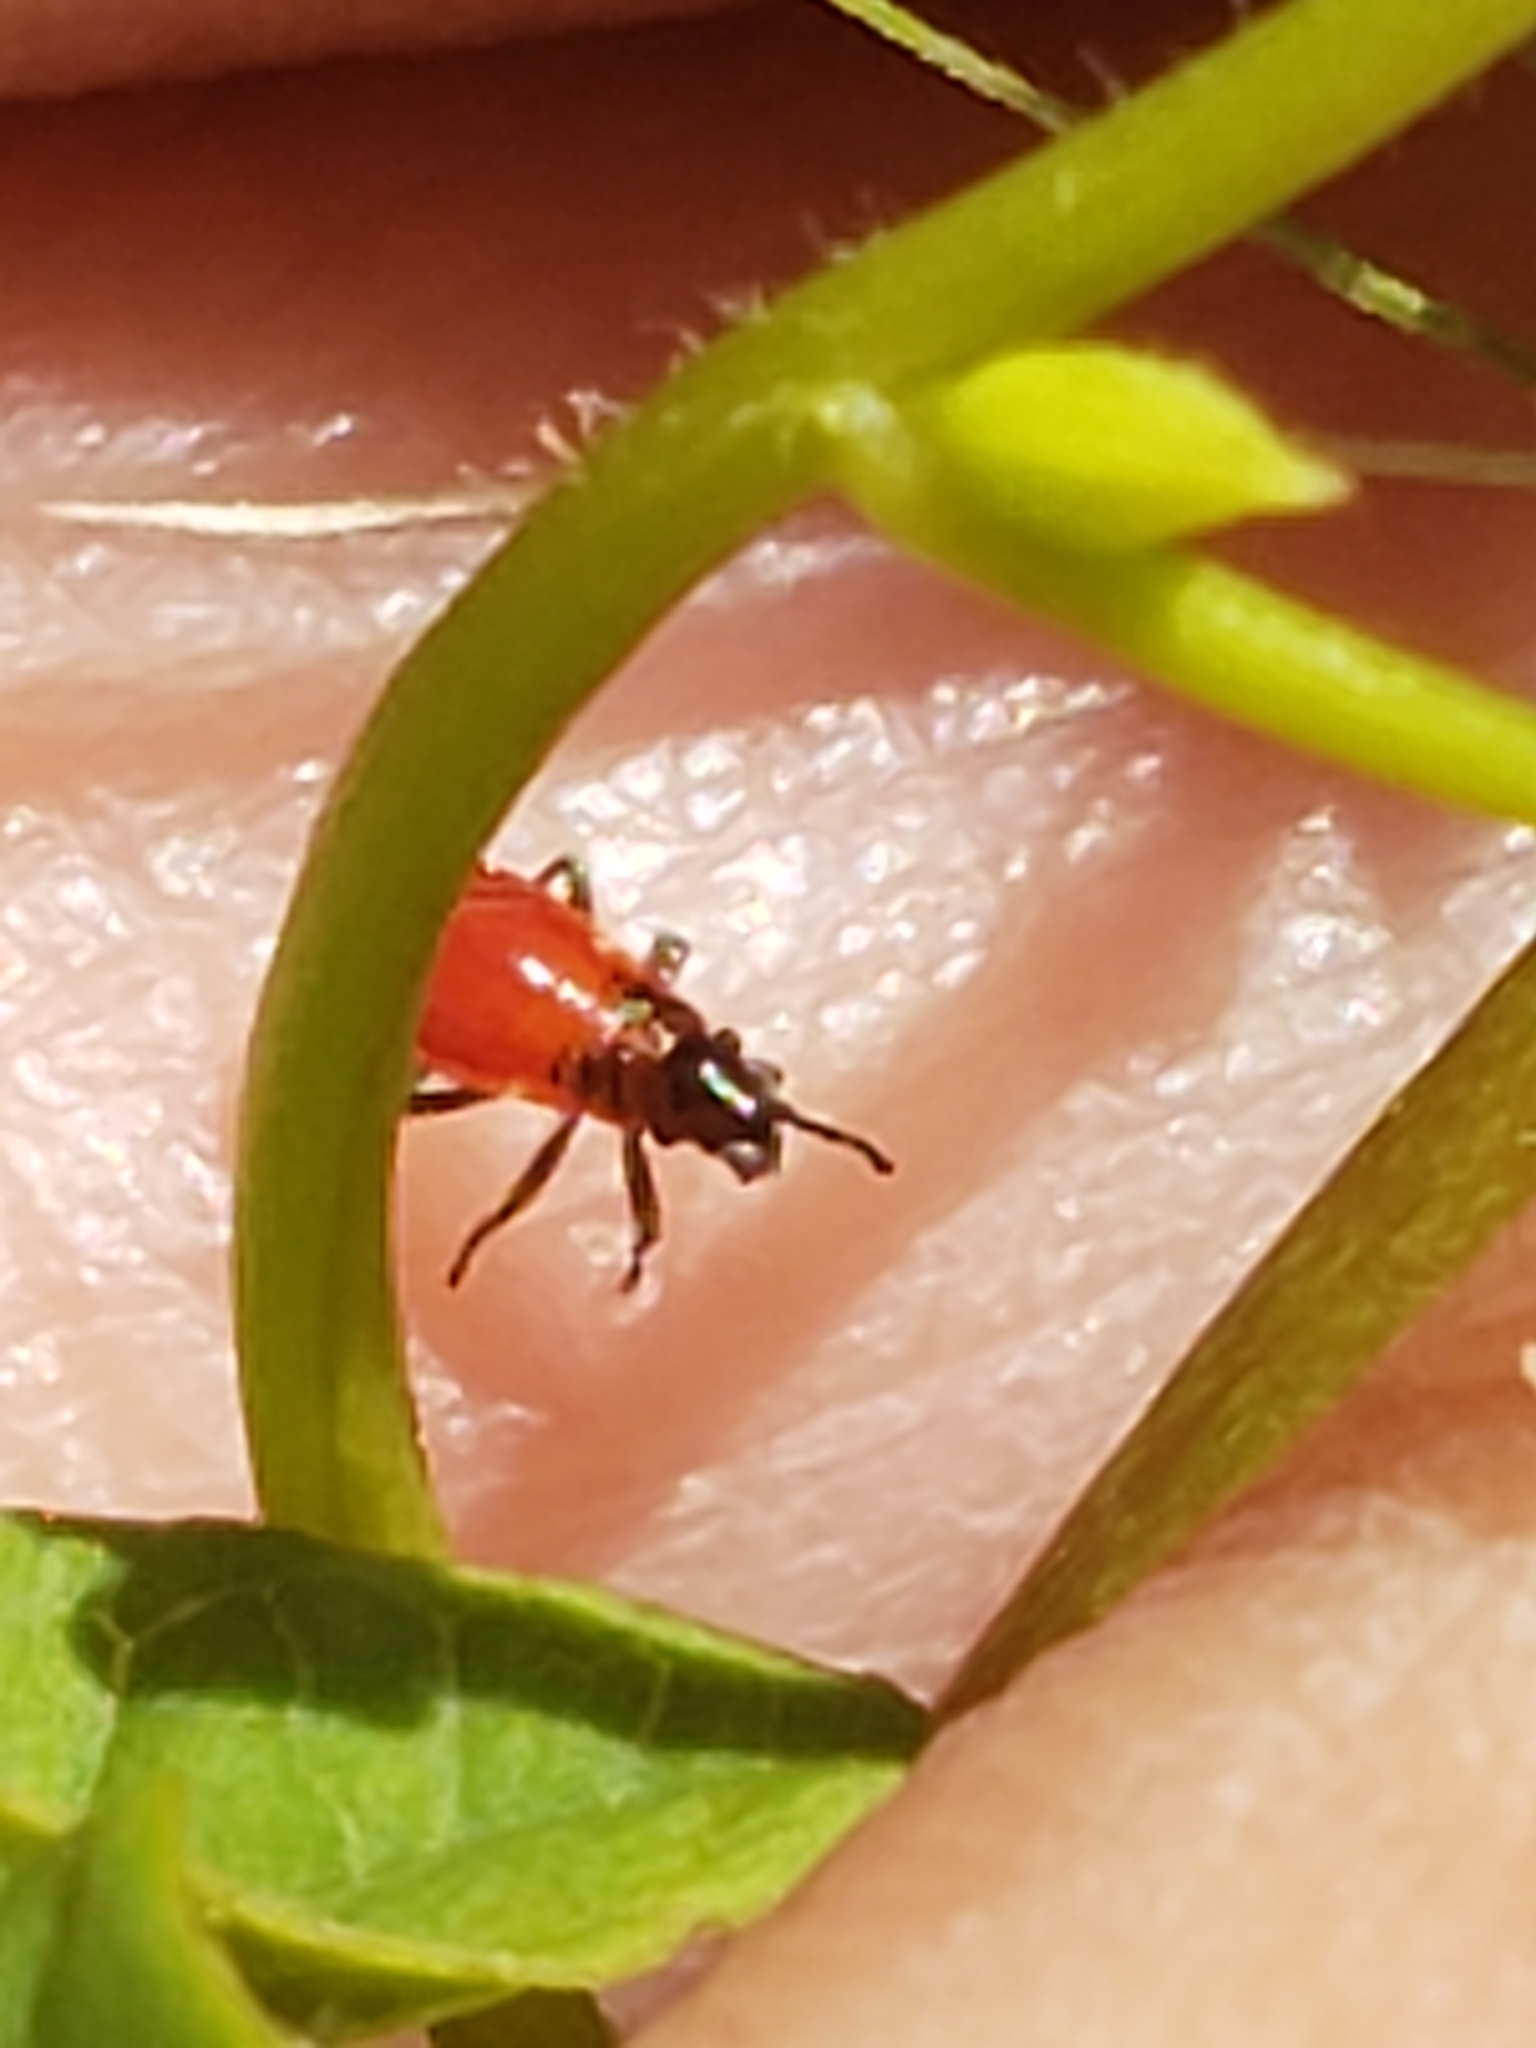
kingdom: Animalia
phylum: Arthropoda
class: Insecta
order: Hemiptera
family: Lygaeidae
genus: Oncopeltus
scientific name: Oncopeltus fasciatus
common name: Large milkweed bug
